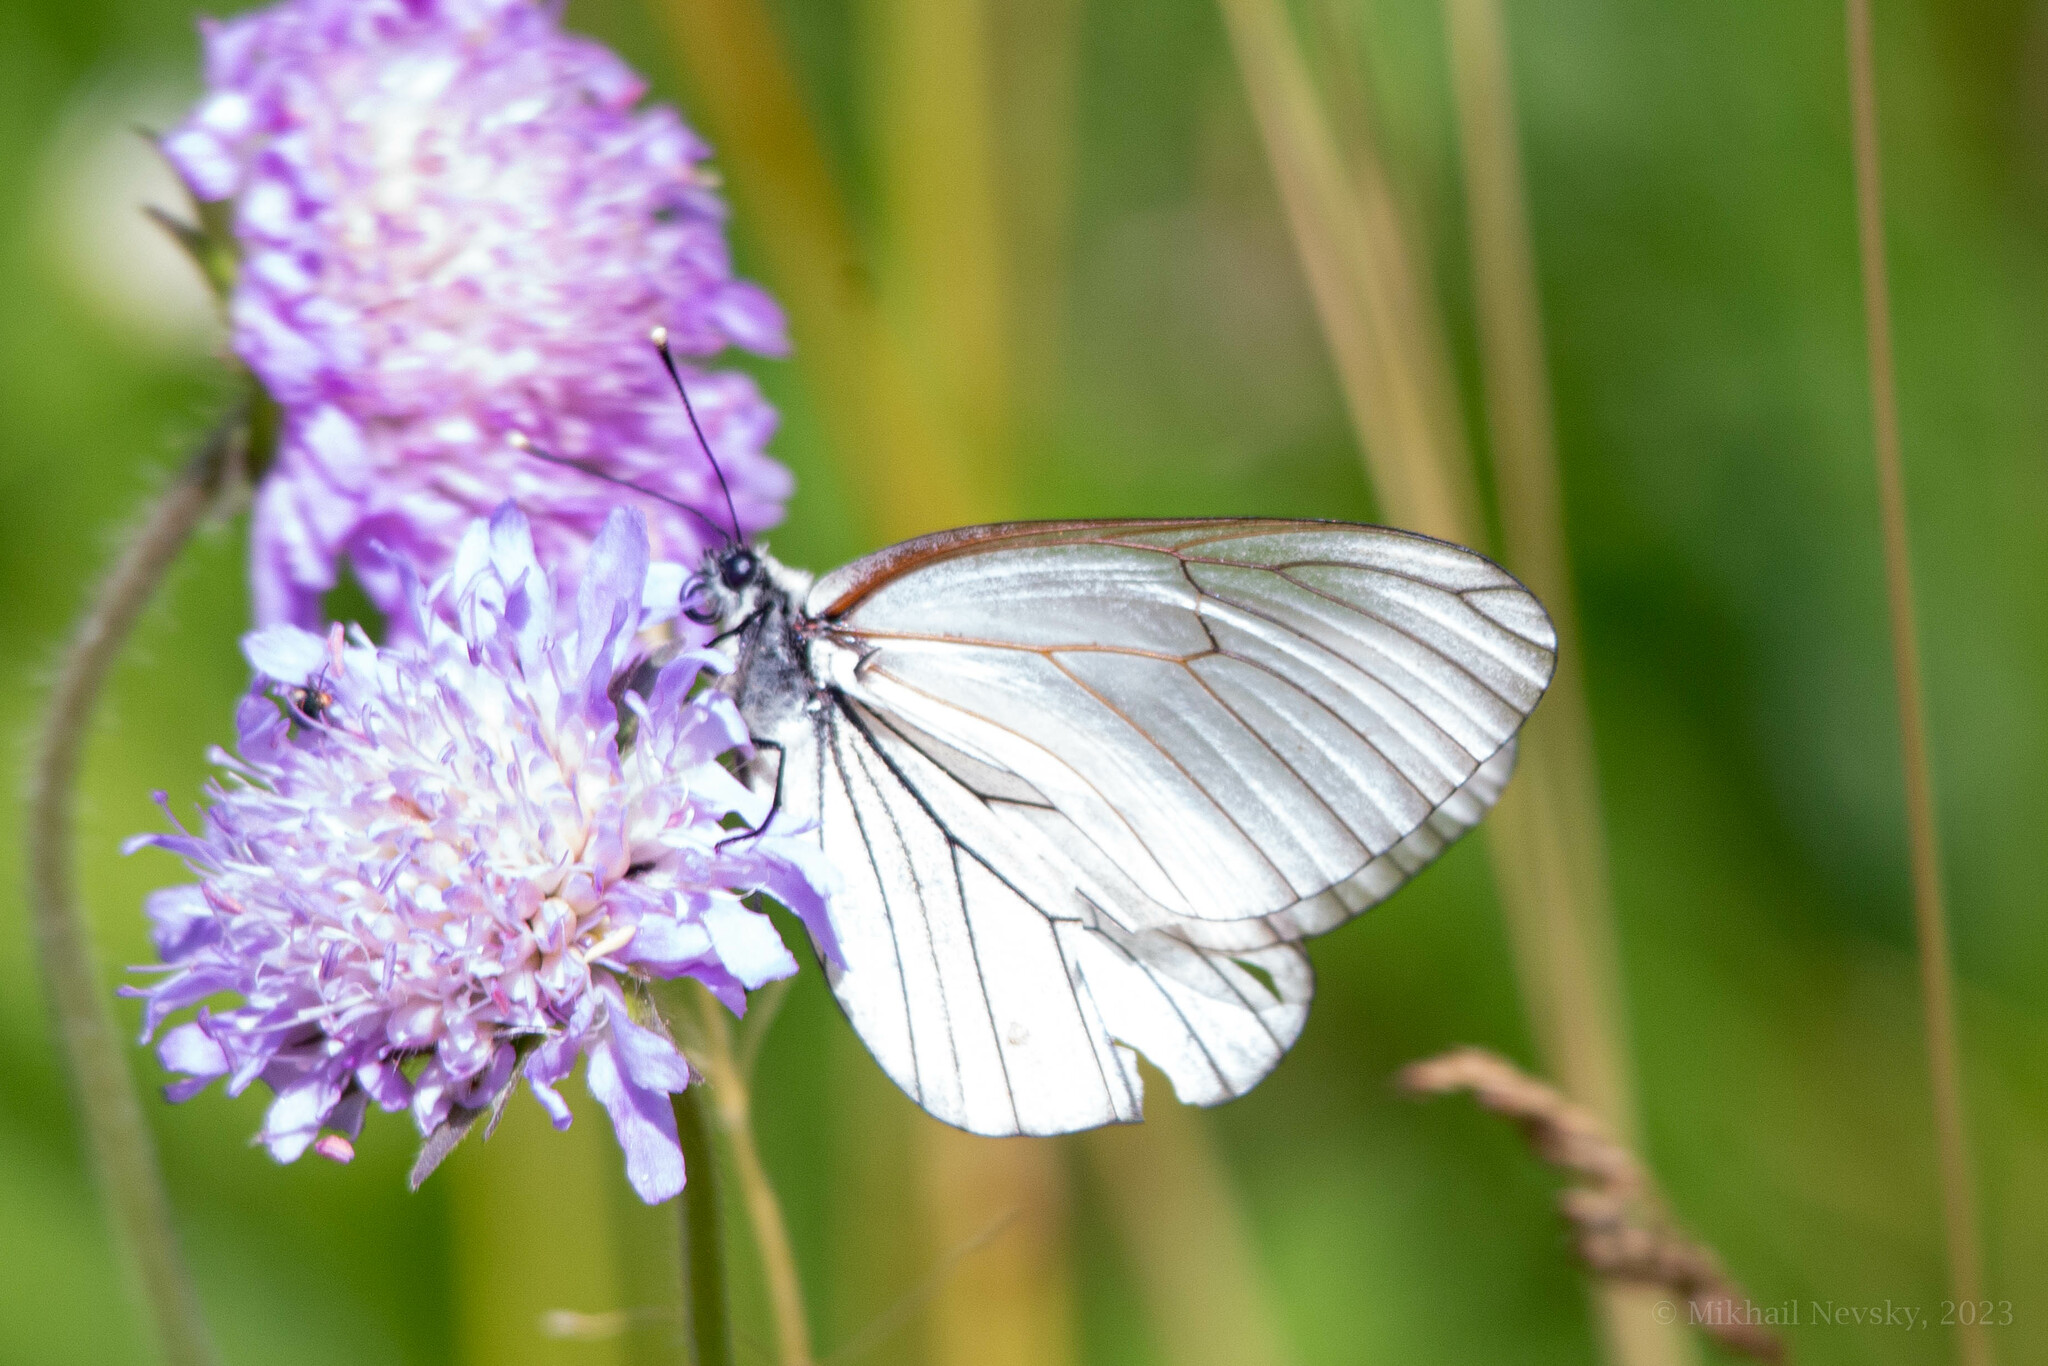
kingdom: Animalia
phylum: Arthropoda
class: Insecta
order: Lepidoptera
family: Pieridae
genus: Aporia
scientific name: Aporia crataegi
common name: Black-veined white
